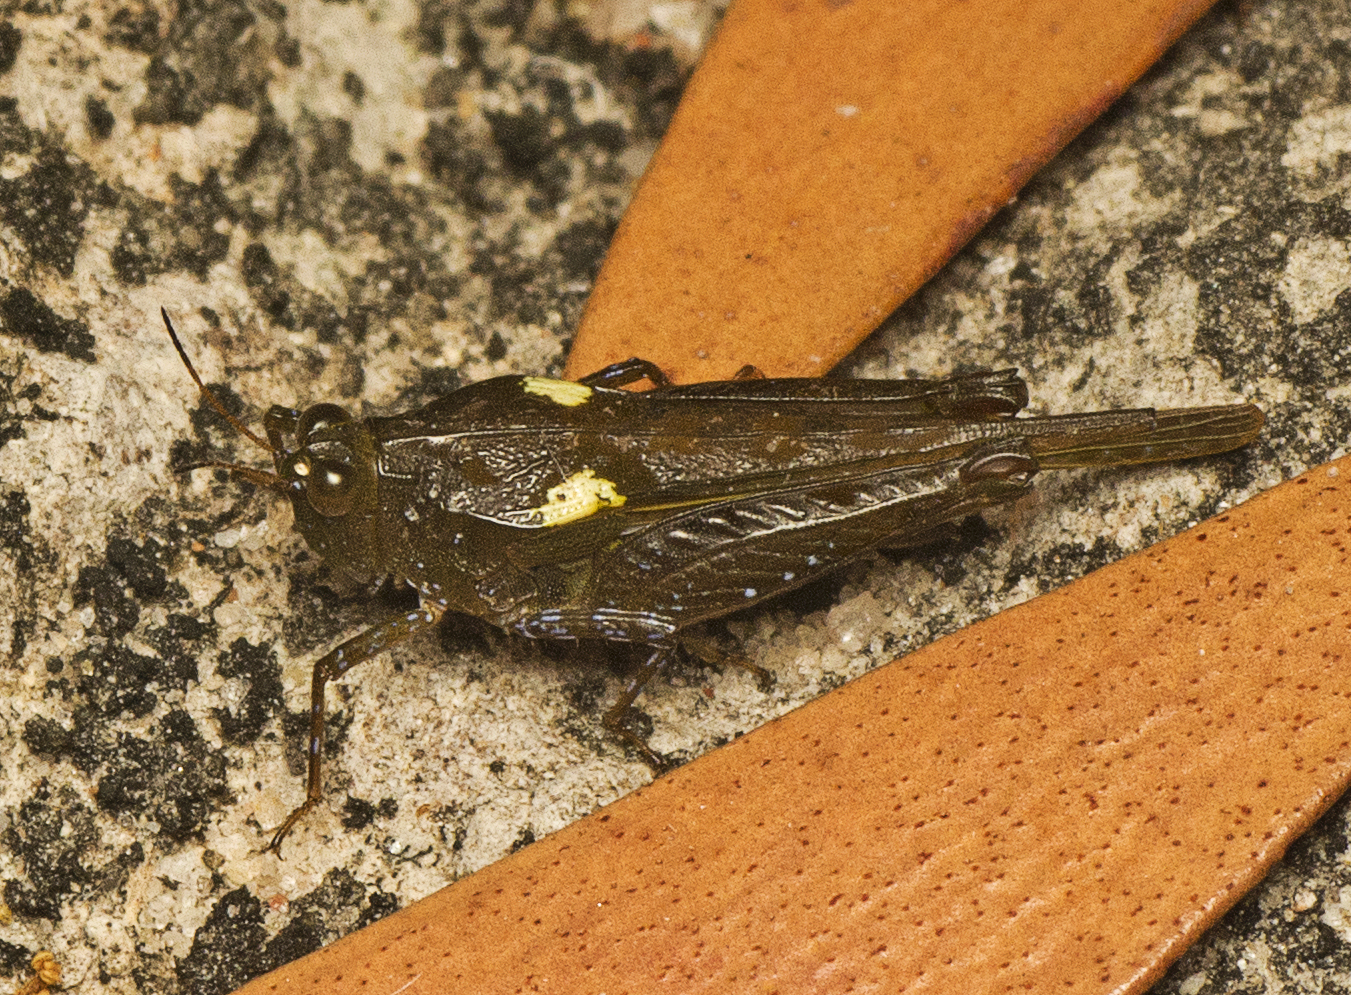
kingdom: Animalia
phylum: Arthropoda
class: Insecta
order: Orthoptera
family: Tetrigidae
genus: Paratettix
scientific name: Paratettix amplus
